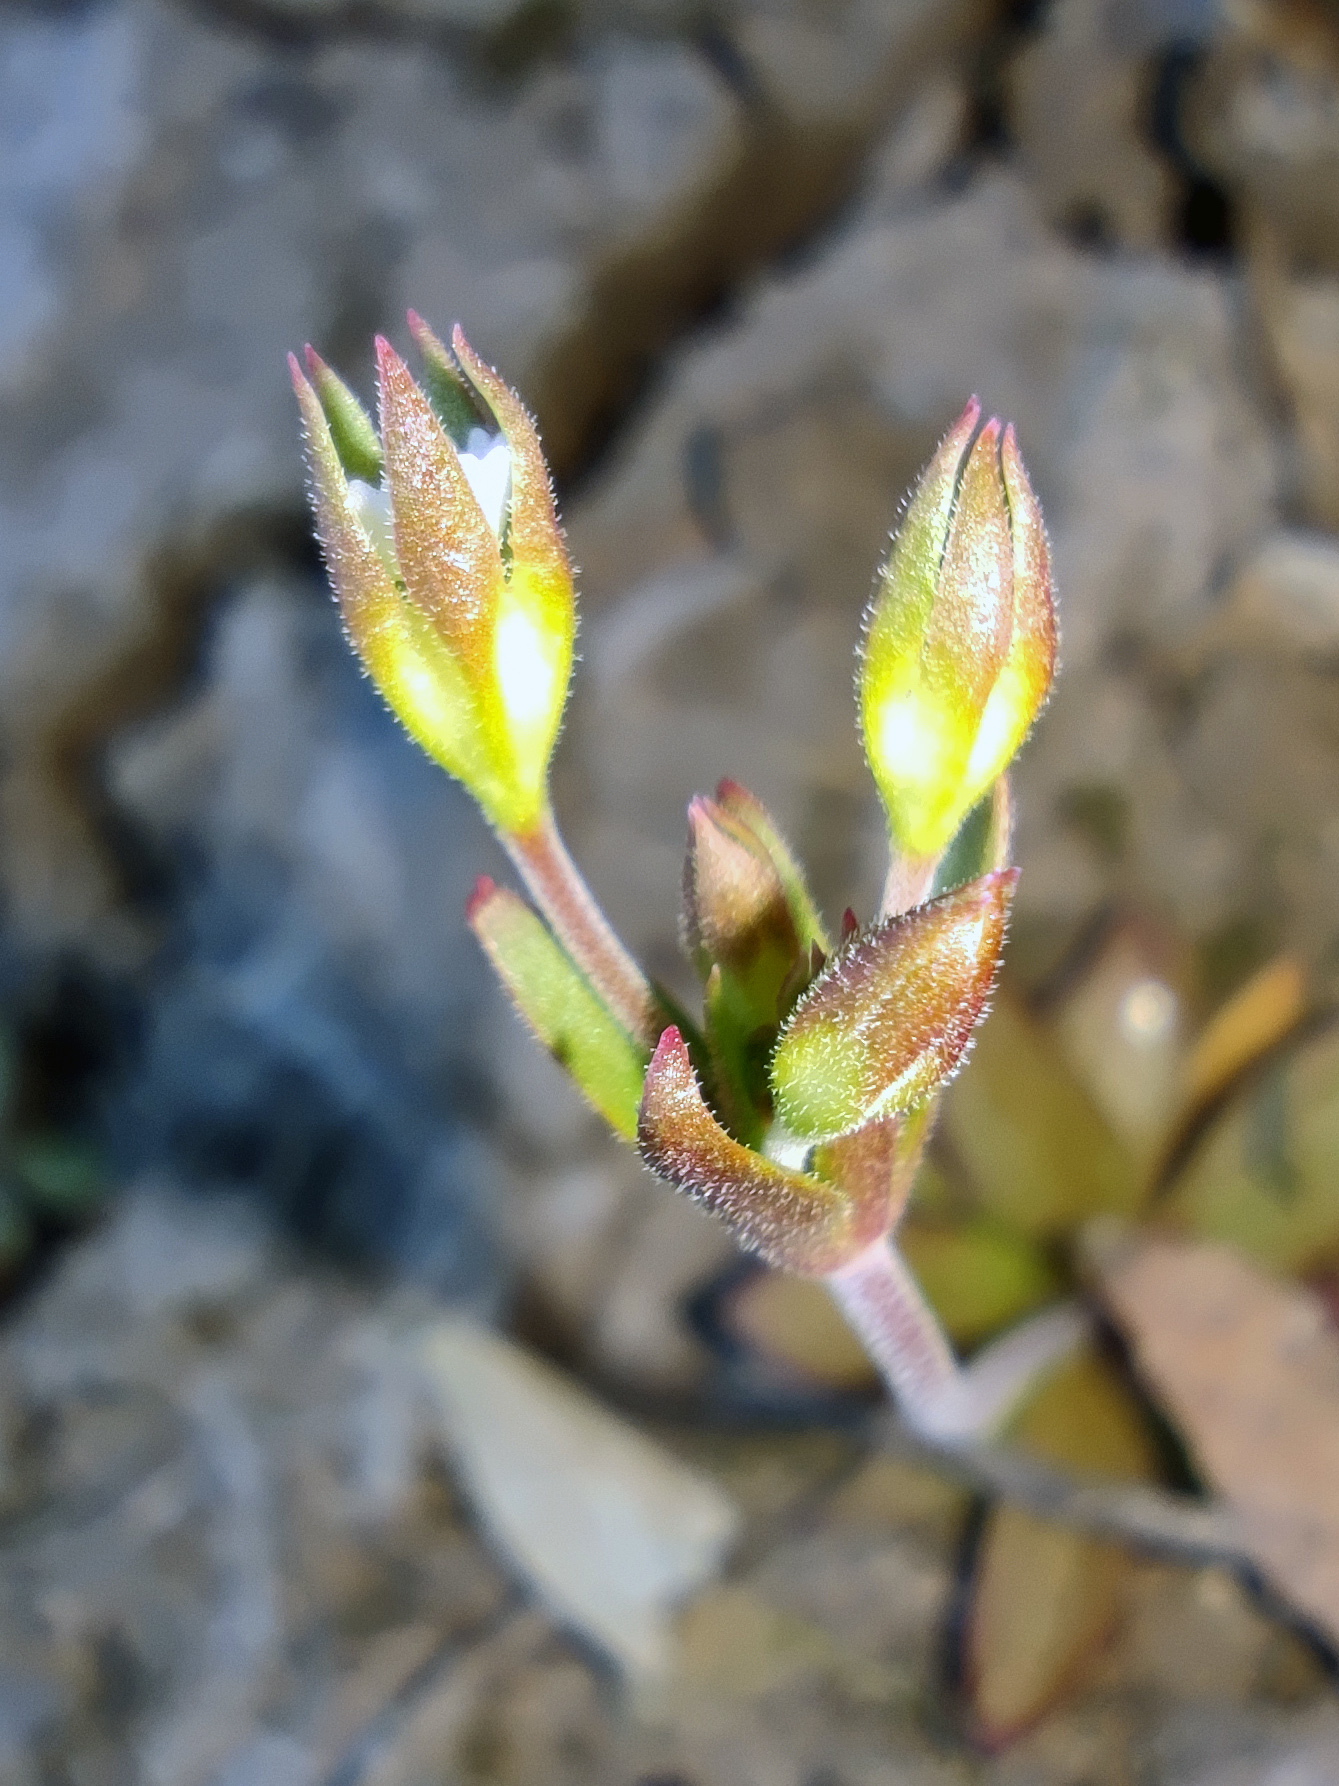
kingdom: Plantae
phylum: Tracheophyta
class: Magnoliopsida
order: Ericales
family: Primulaceae
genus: Androsace
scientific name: Androsace elongata
